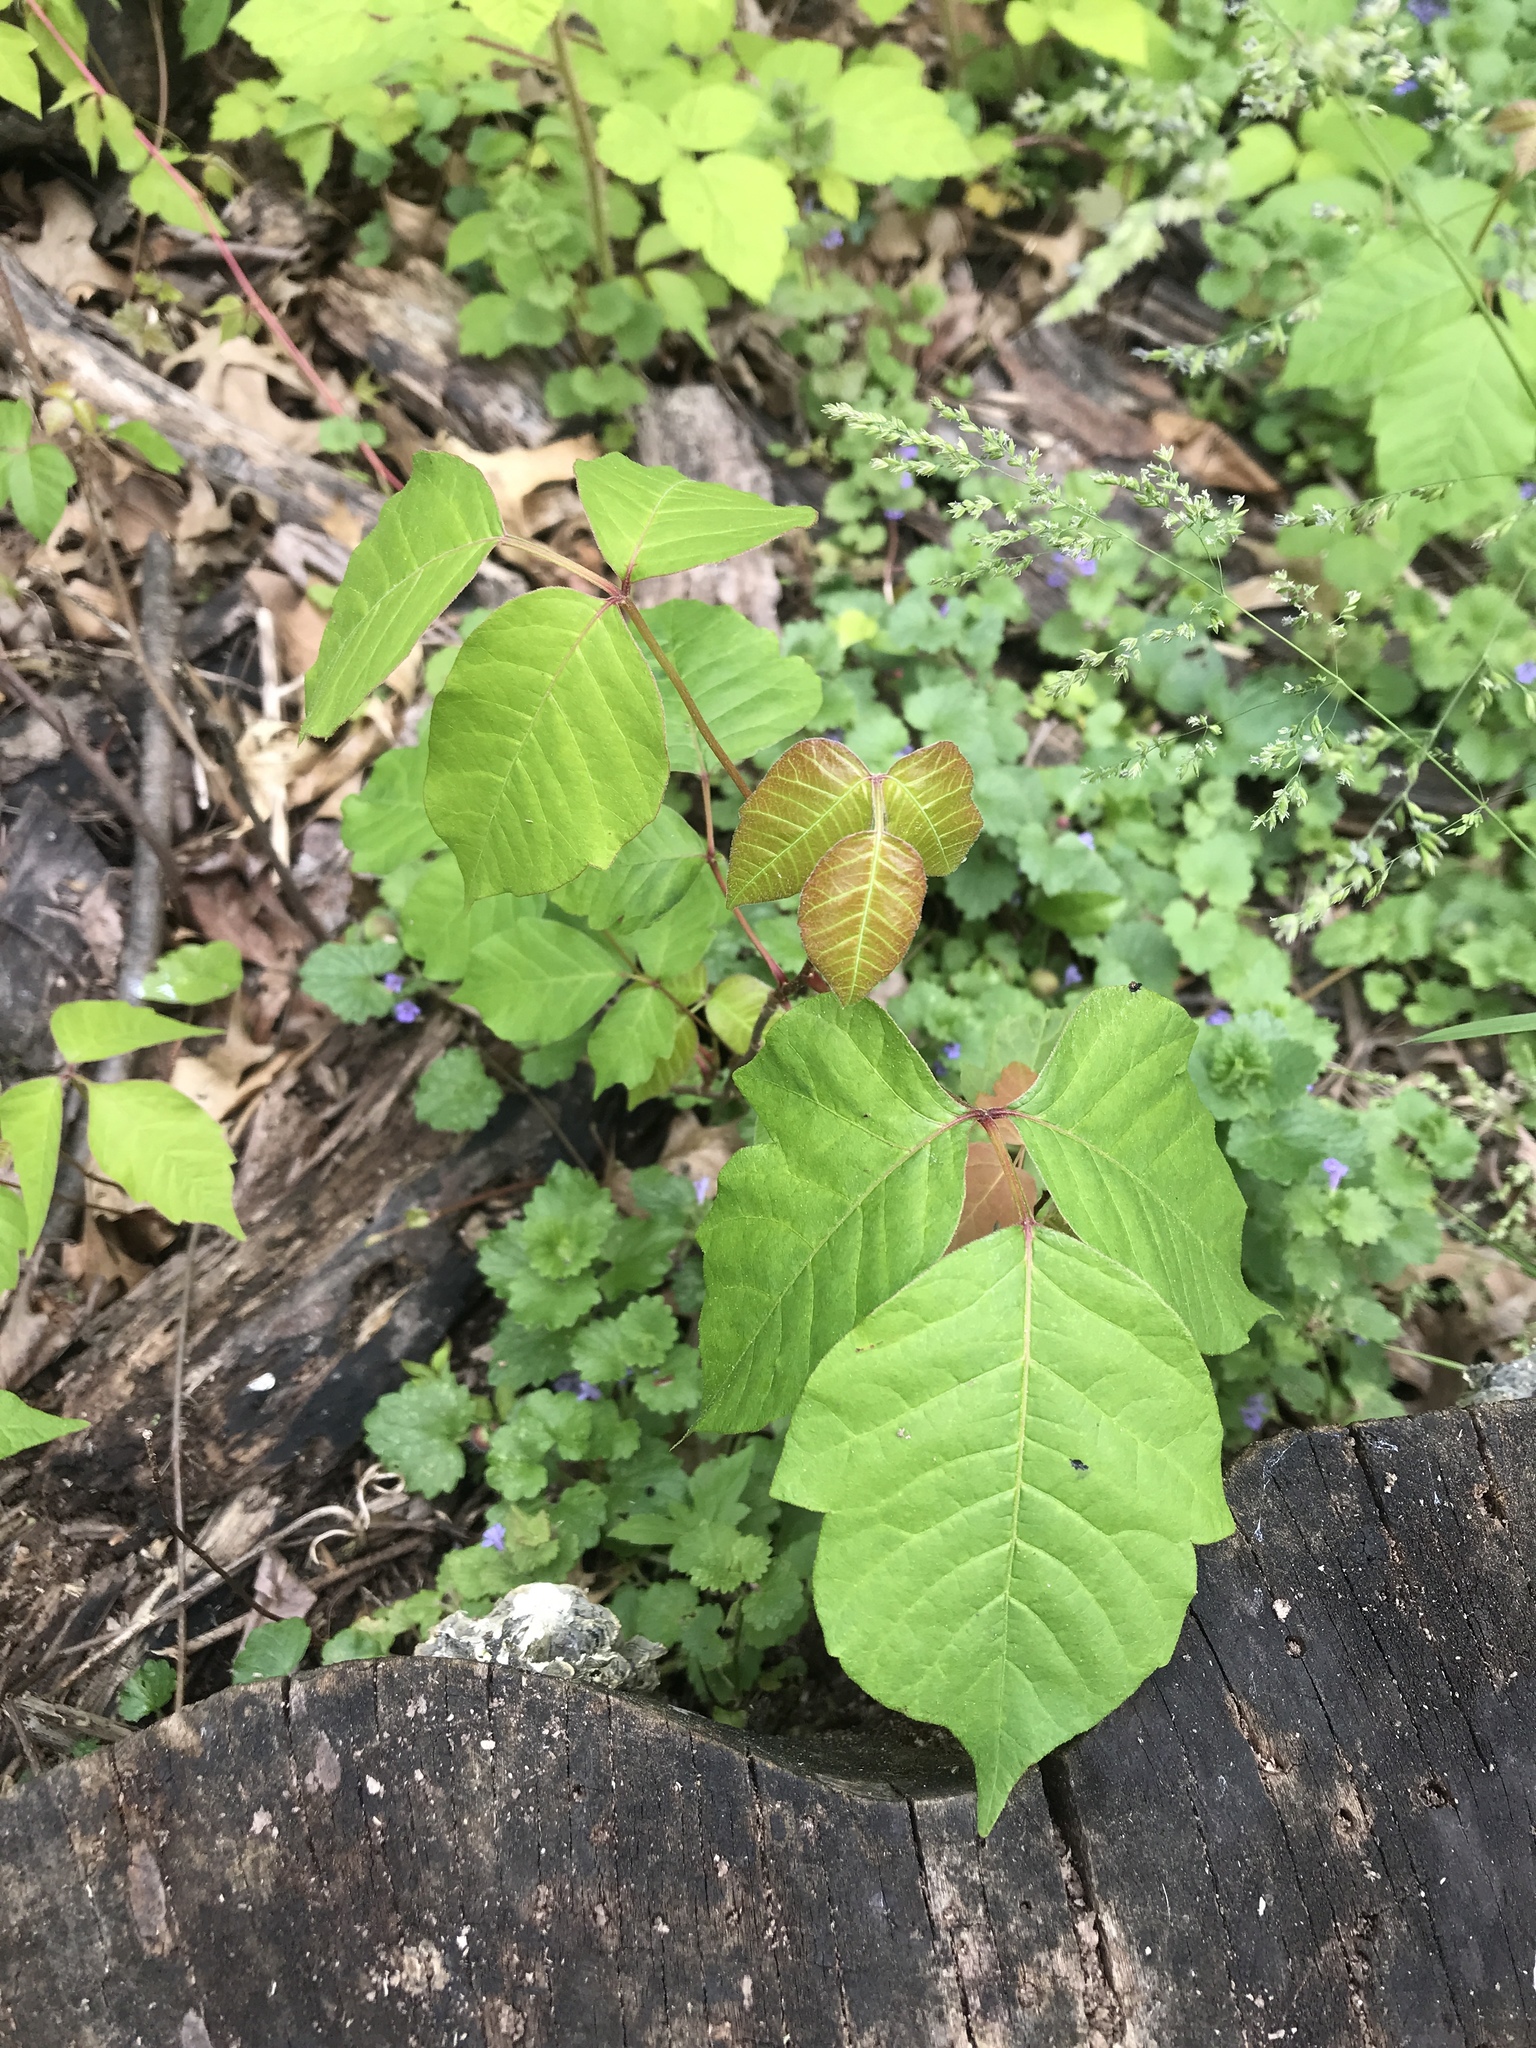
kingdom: Plantae
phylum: Tracheophyta
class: Magnoliopsida
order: Sapindales
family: Anacardiaceae
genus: Toxicodendron
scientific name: Toxicodendron radicans
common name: Poison ivy
